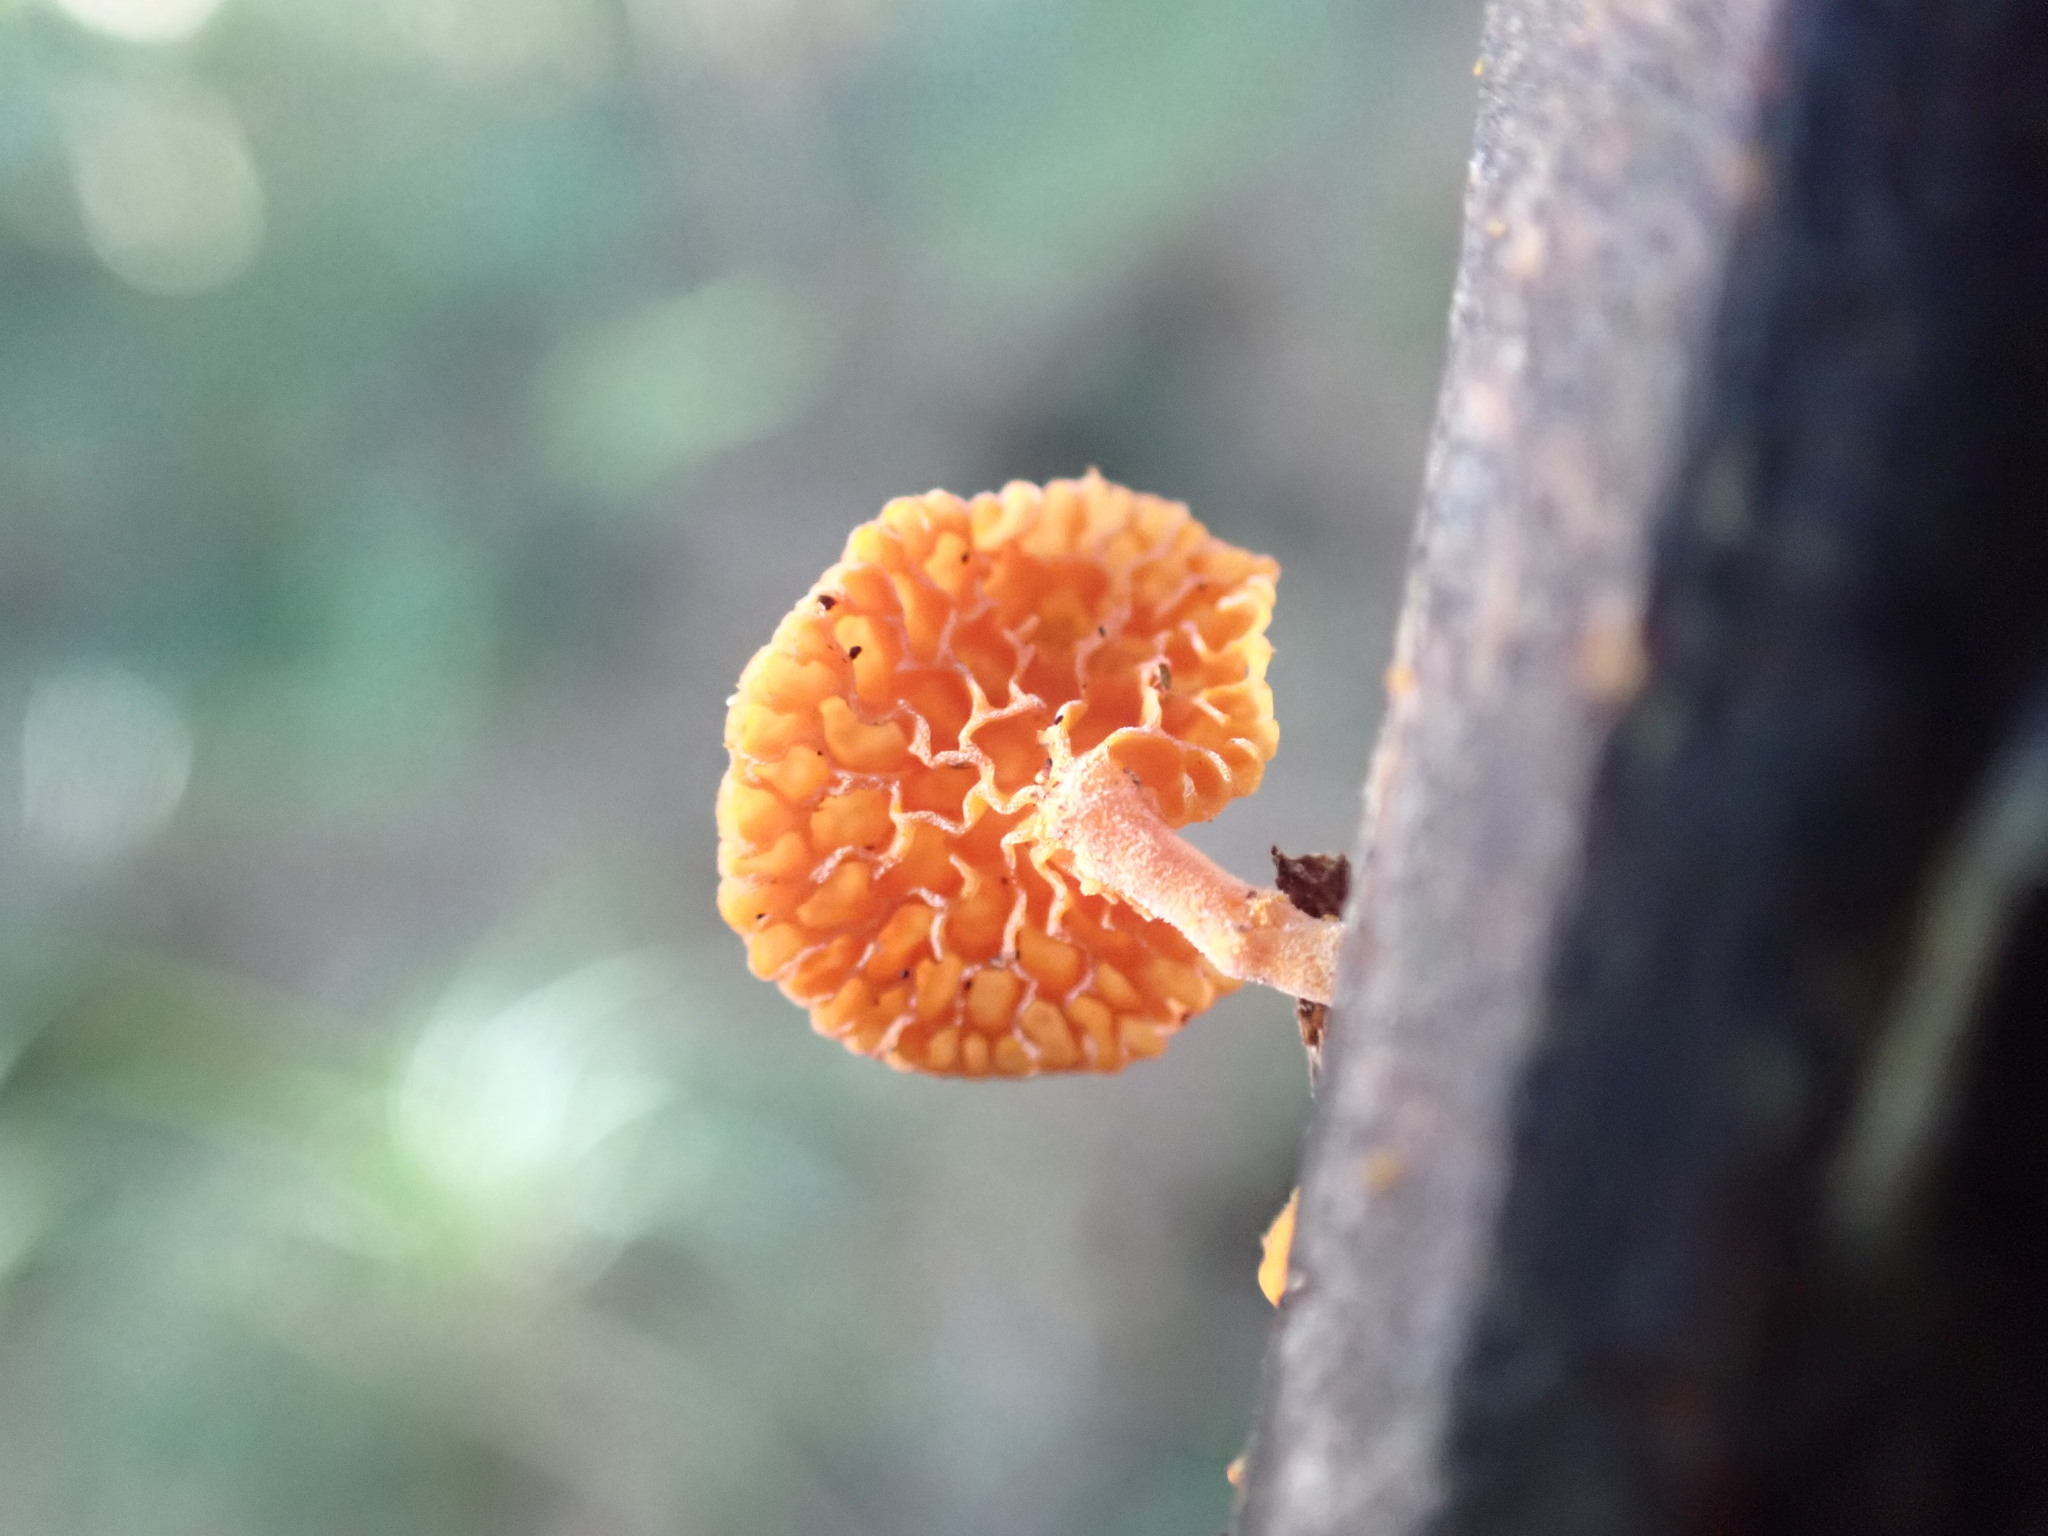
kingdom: Fungi
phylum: Basidiomycota
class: Agaricomycetes
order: Agaricales
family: Mycenaceae
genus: Favolaschia
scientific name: Favolaschia claudopus
